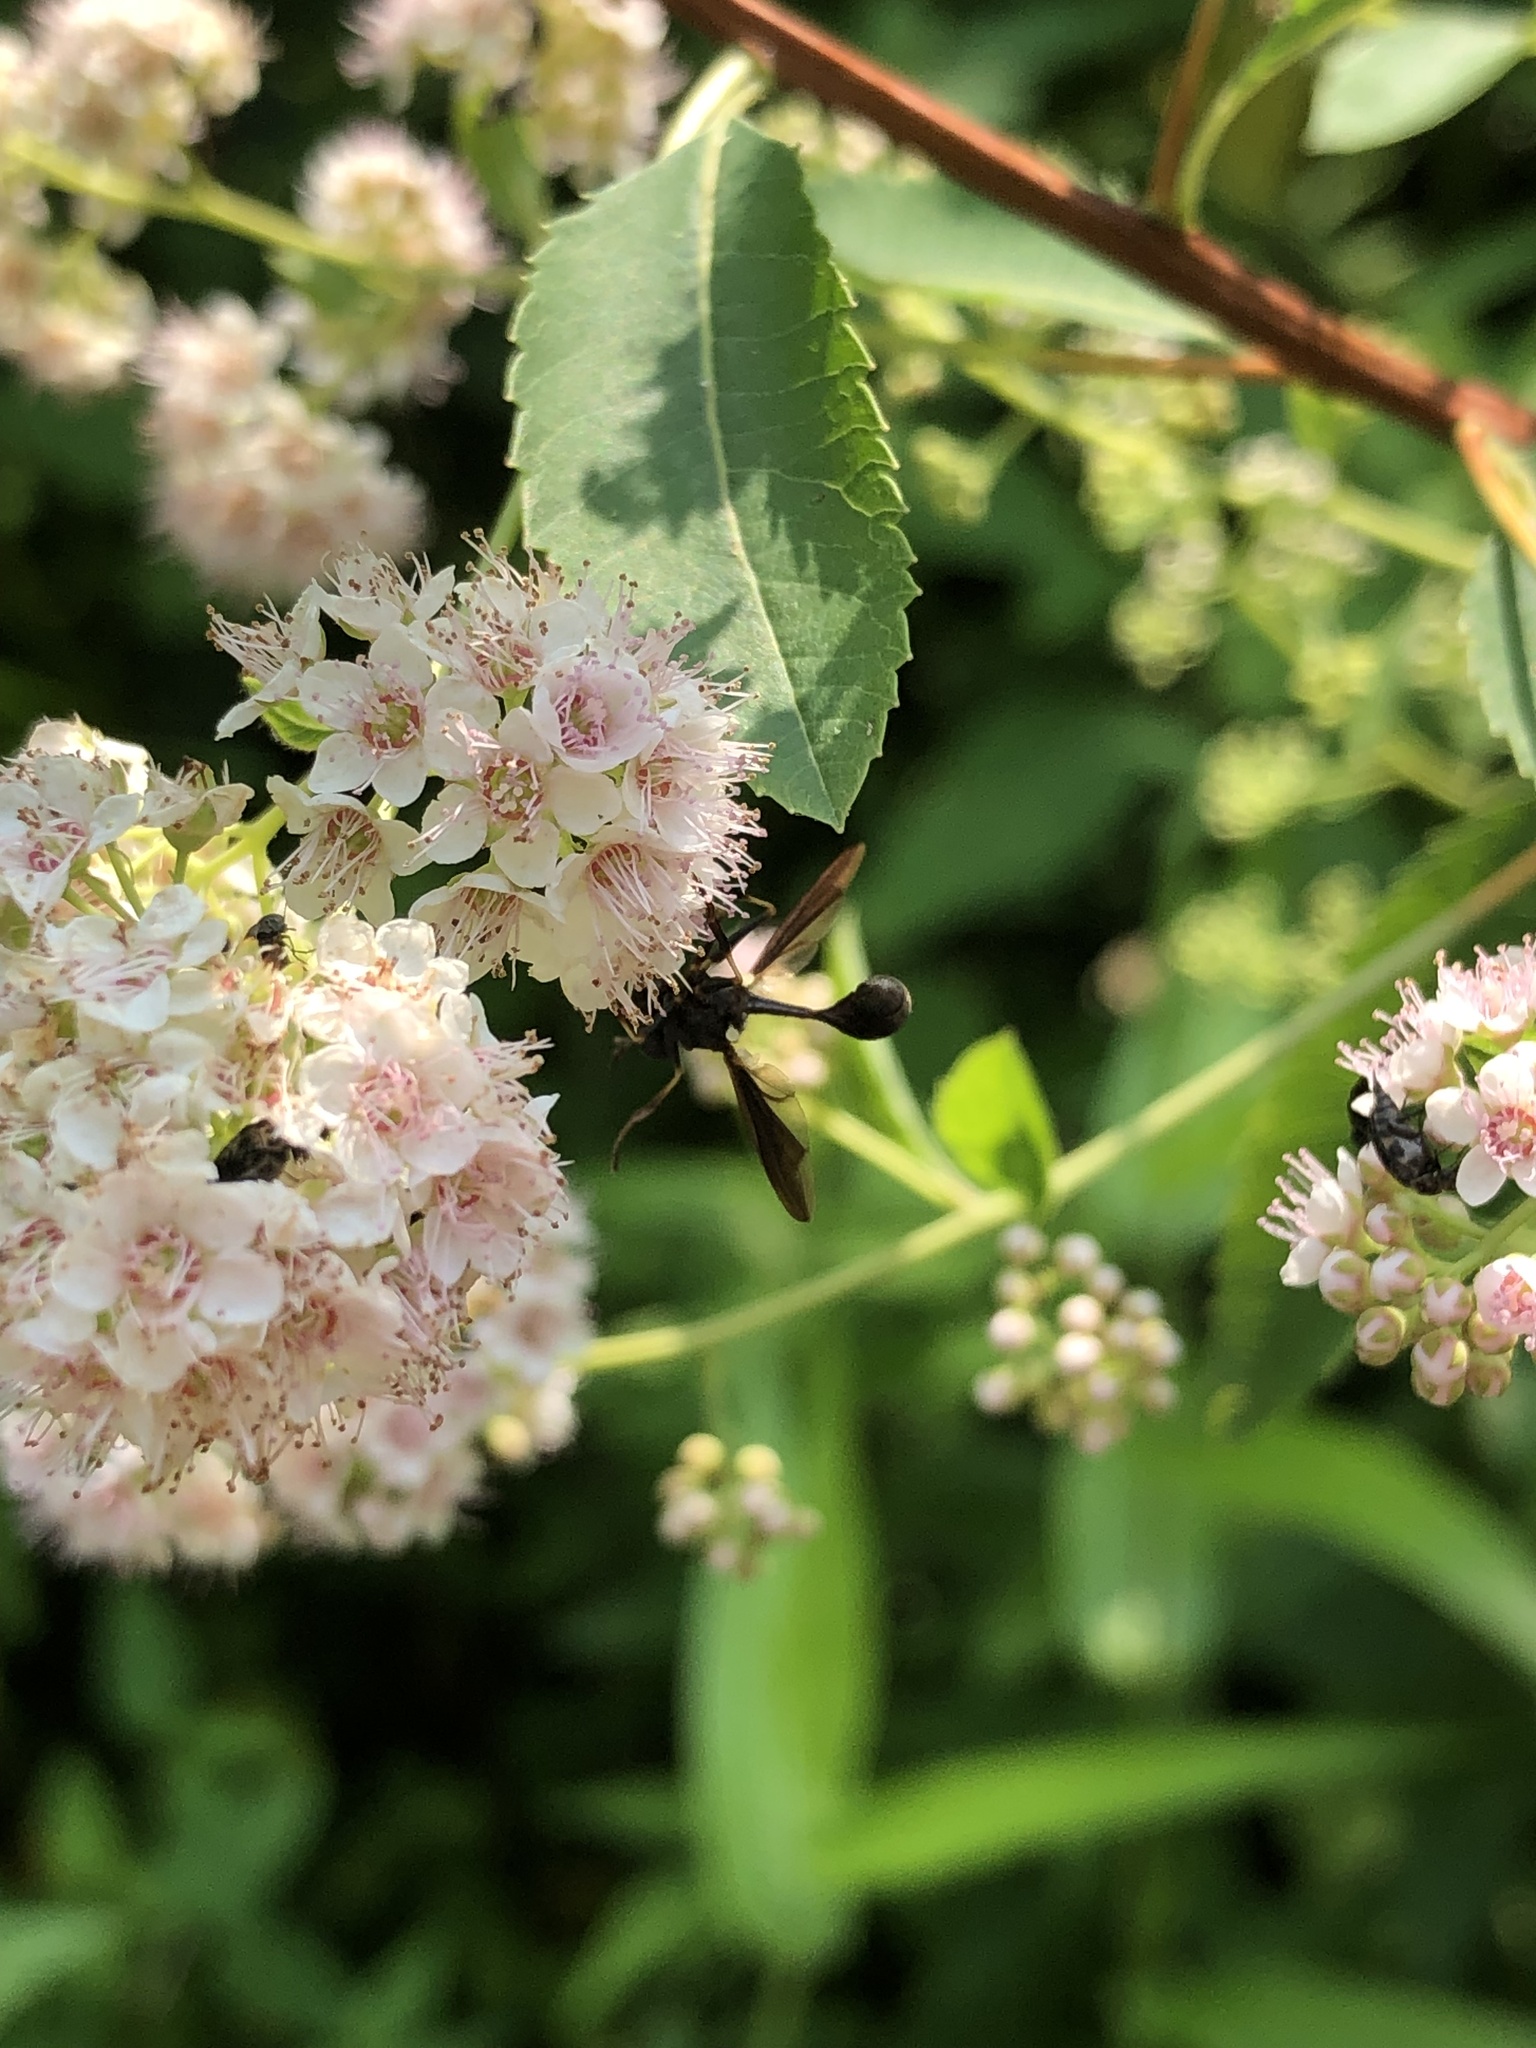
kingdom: Animalia
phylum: Arthropoda
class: Insecta
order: Diptera
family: Conopidae
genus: Physocephala
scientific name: Physocephala tibialis
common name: Common eastern physocephala
